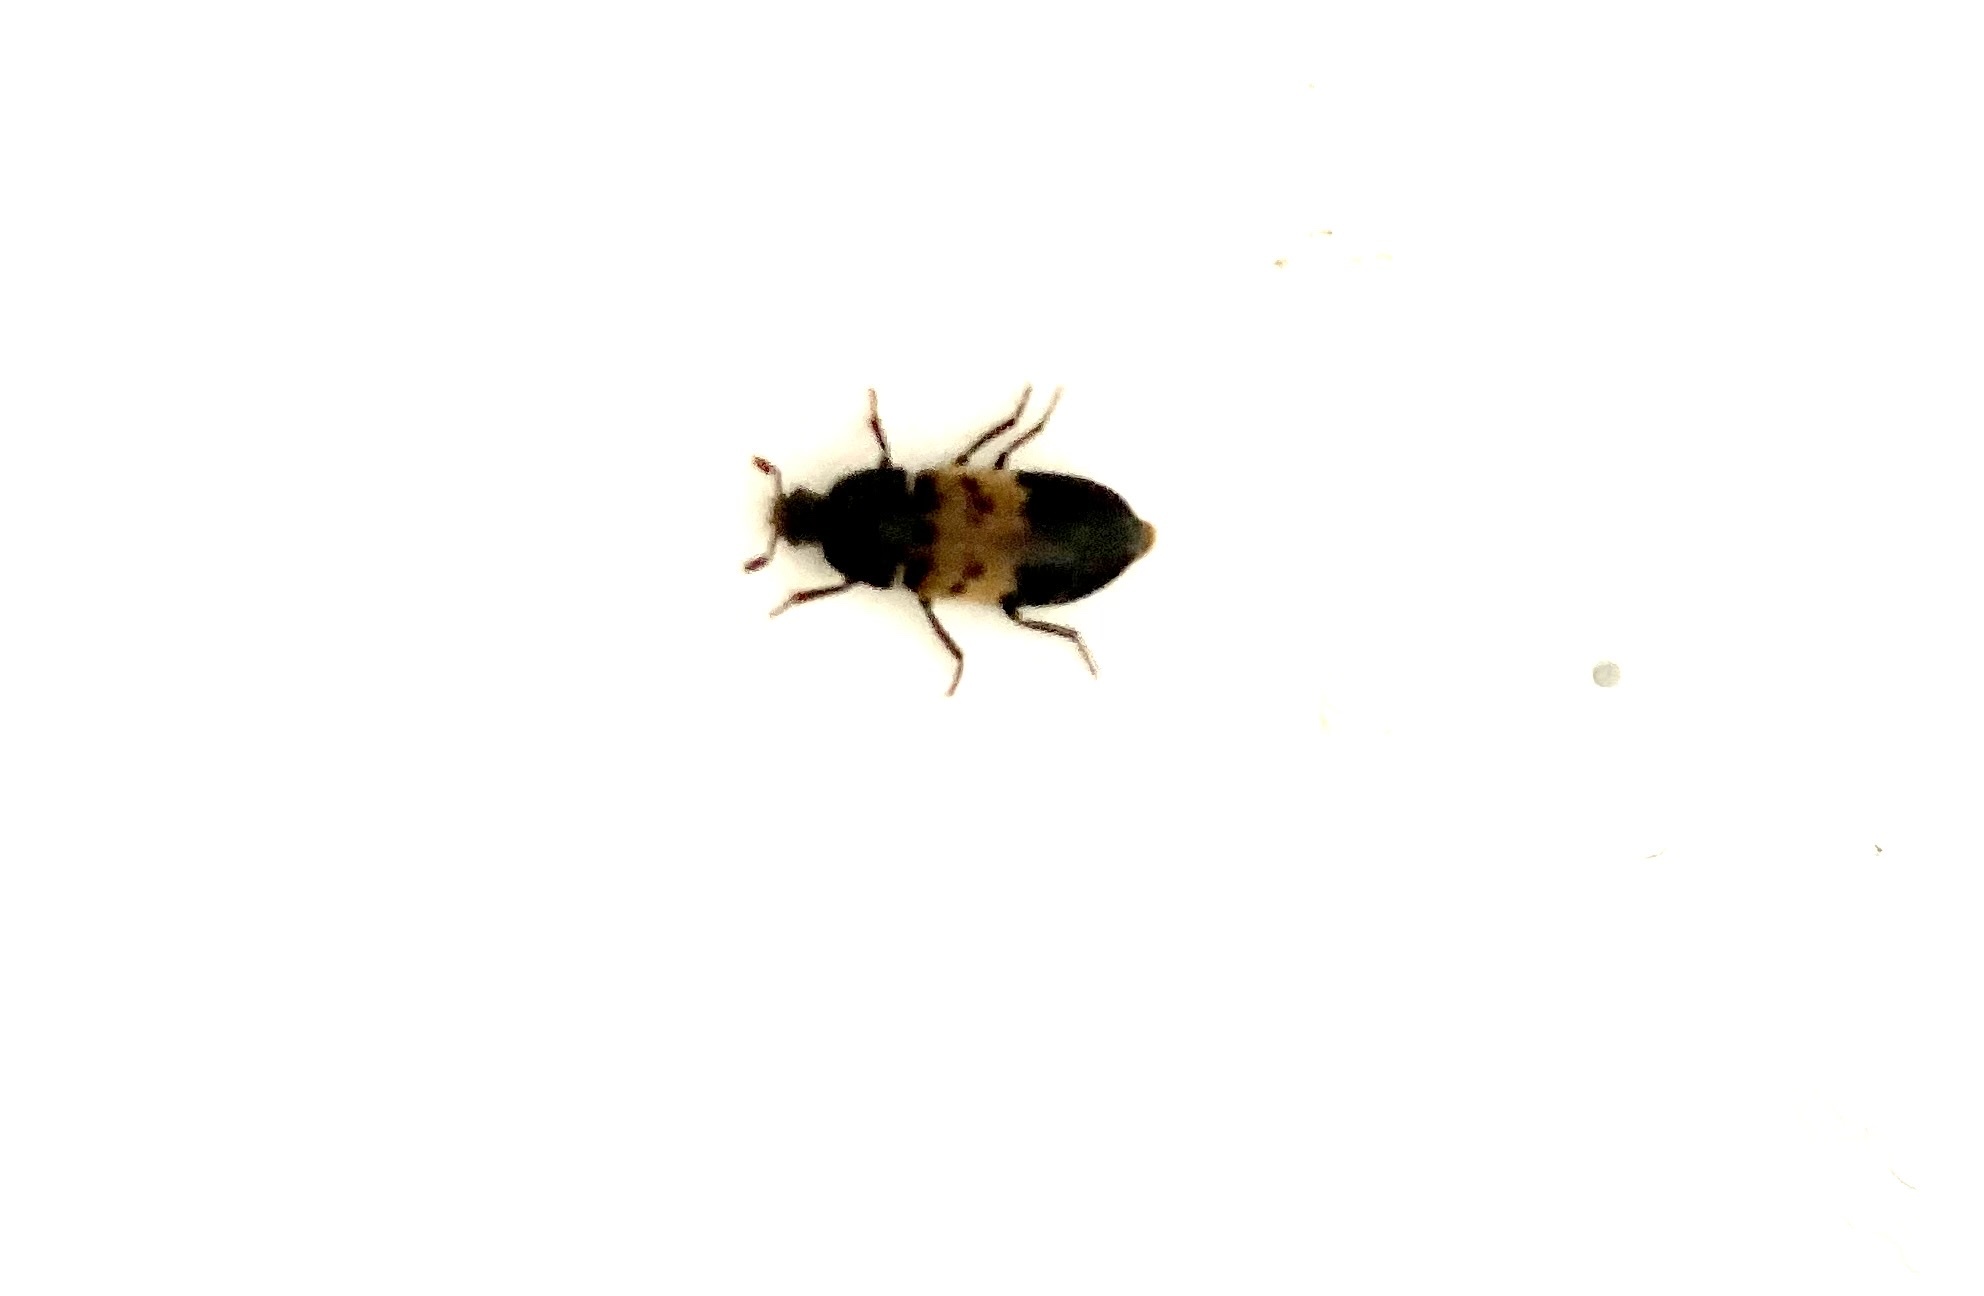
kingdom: Animalia
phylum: Arthropoda
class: Insecta
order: Coleoptera
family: Dermestidae
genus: Dermestes
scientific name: Dermestes lardarius
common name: Larder beetle
